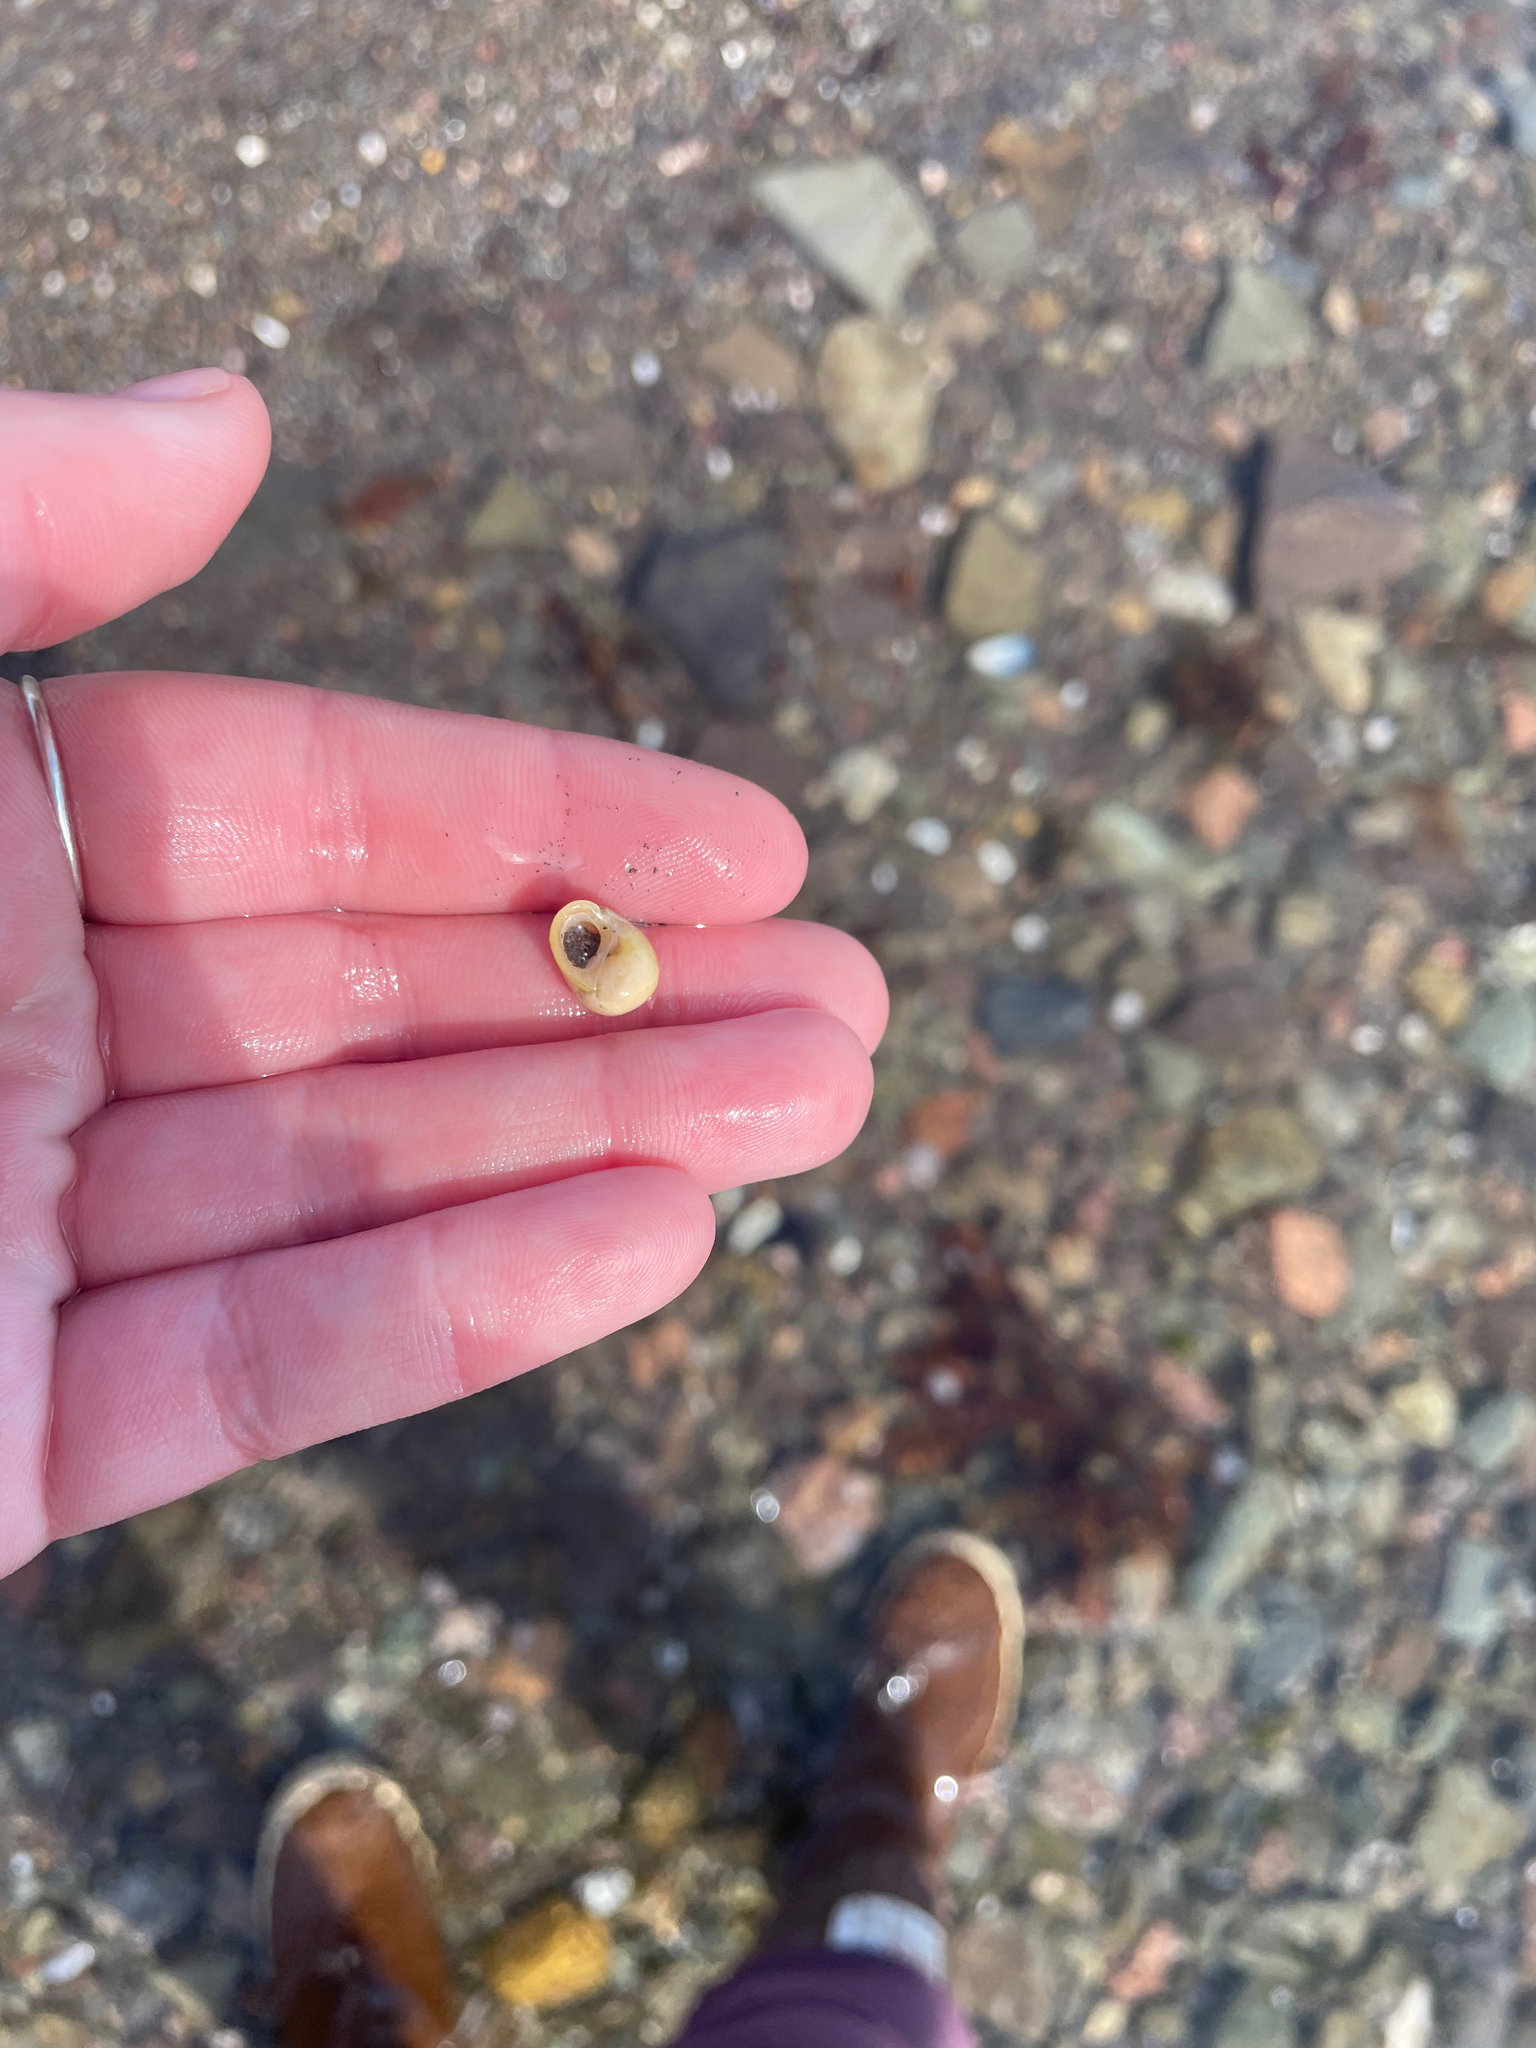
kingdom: Animalia
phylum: Mollusca
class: Gastropoda
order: Littorinimorpha
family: Littorinidae
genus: Littorina
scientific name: Littorina obtusata
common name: Flat periwinkle
